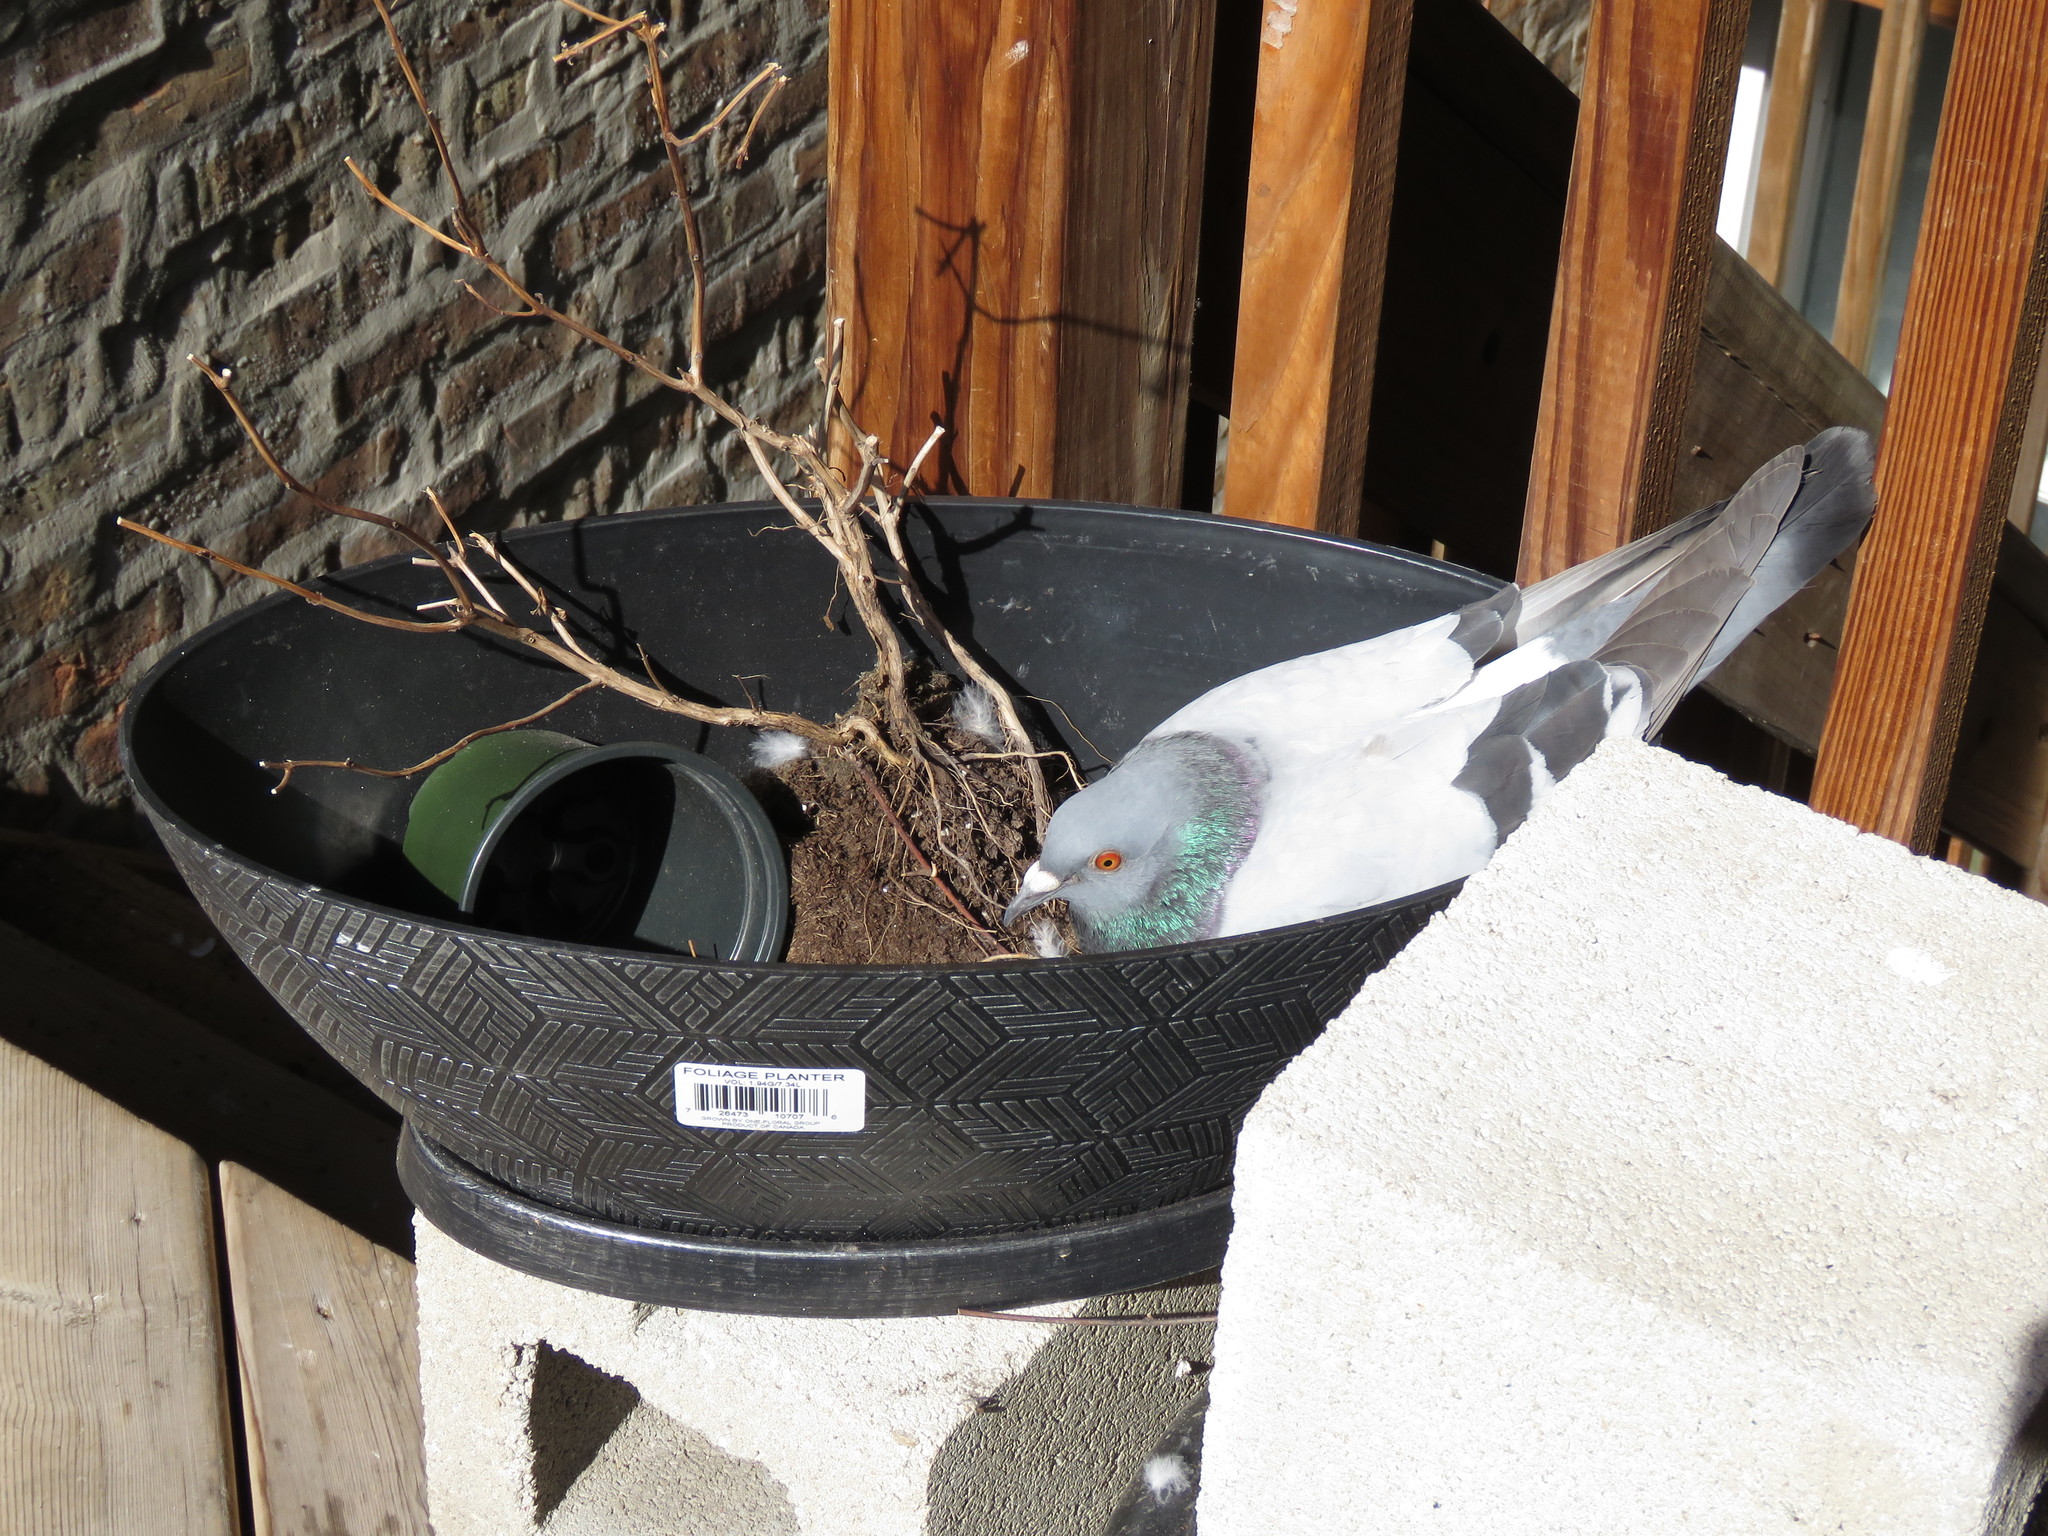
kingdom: Animalia
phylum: Chordata
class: Aves
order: Columbiformes
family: Columbidae
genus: Columba
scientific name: Columba livia
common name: Rock pigeon
